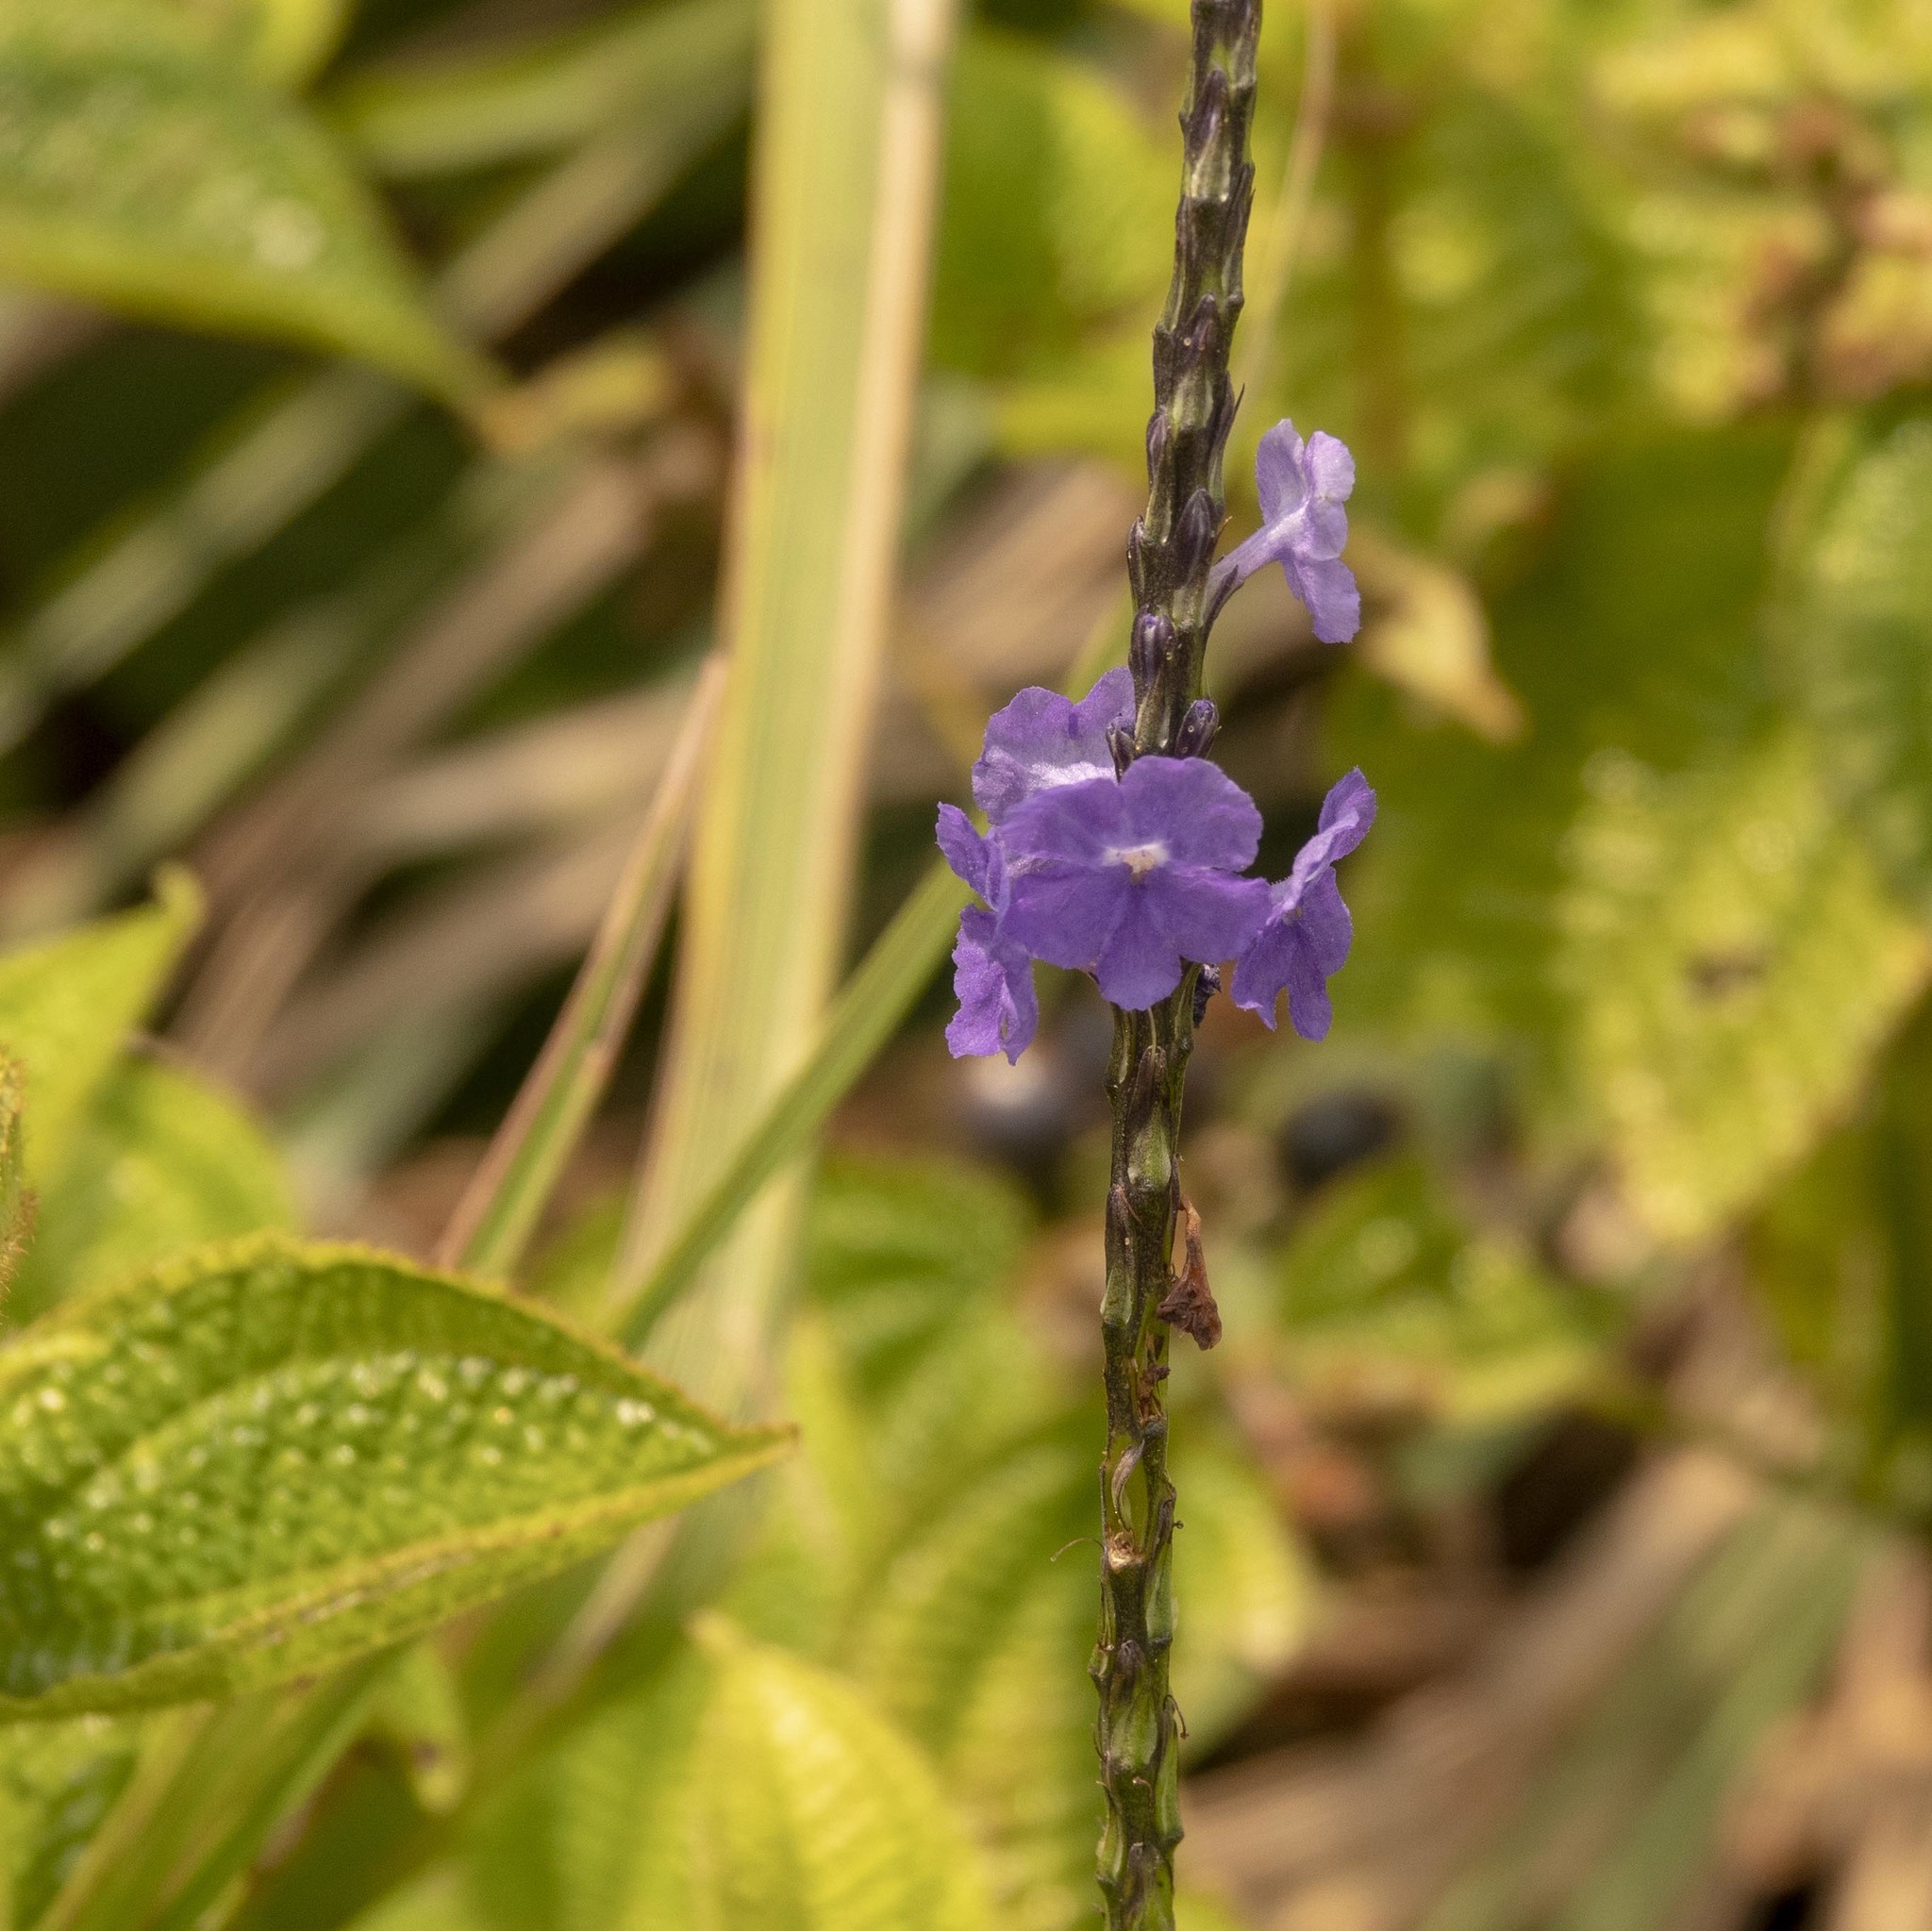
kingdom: Plantae
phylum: Tracheophyta
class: Magnoliopsida
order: Lamiales
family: Verbenaceae
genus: Stachytarpheta
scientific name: Stachytarpheta jamaicensis
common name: Light-blue snakeweed
